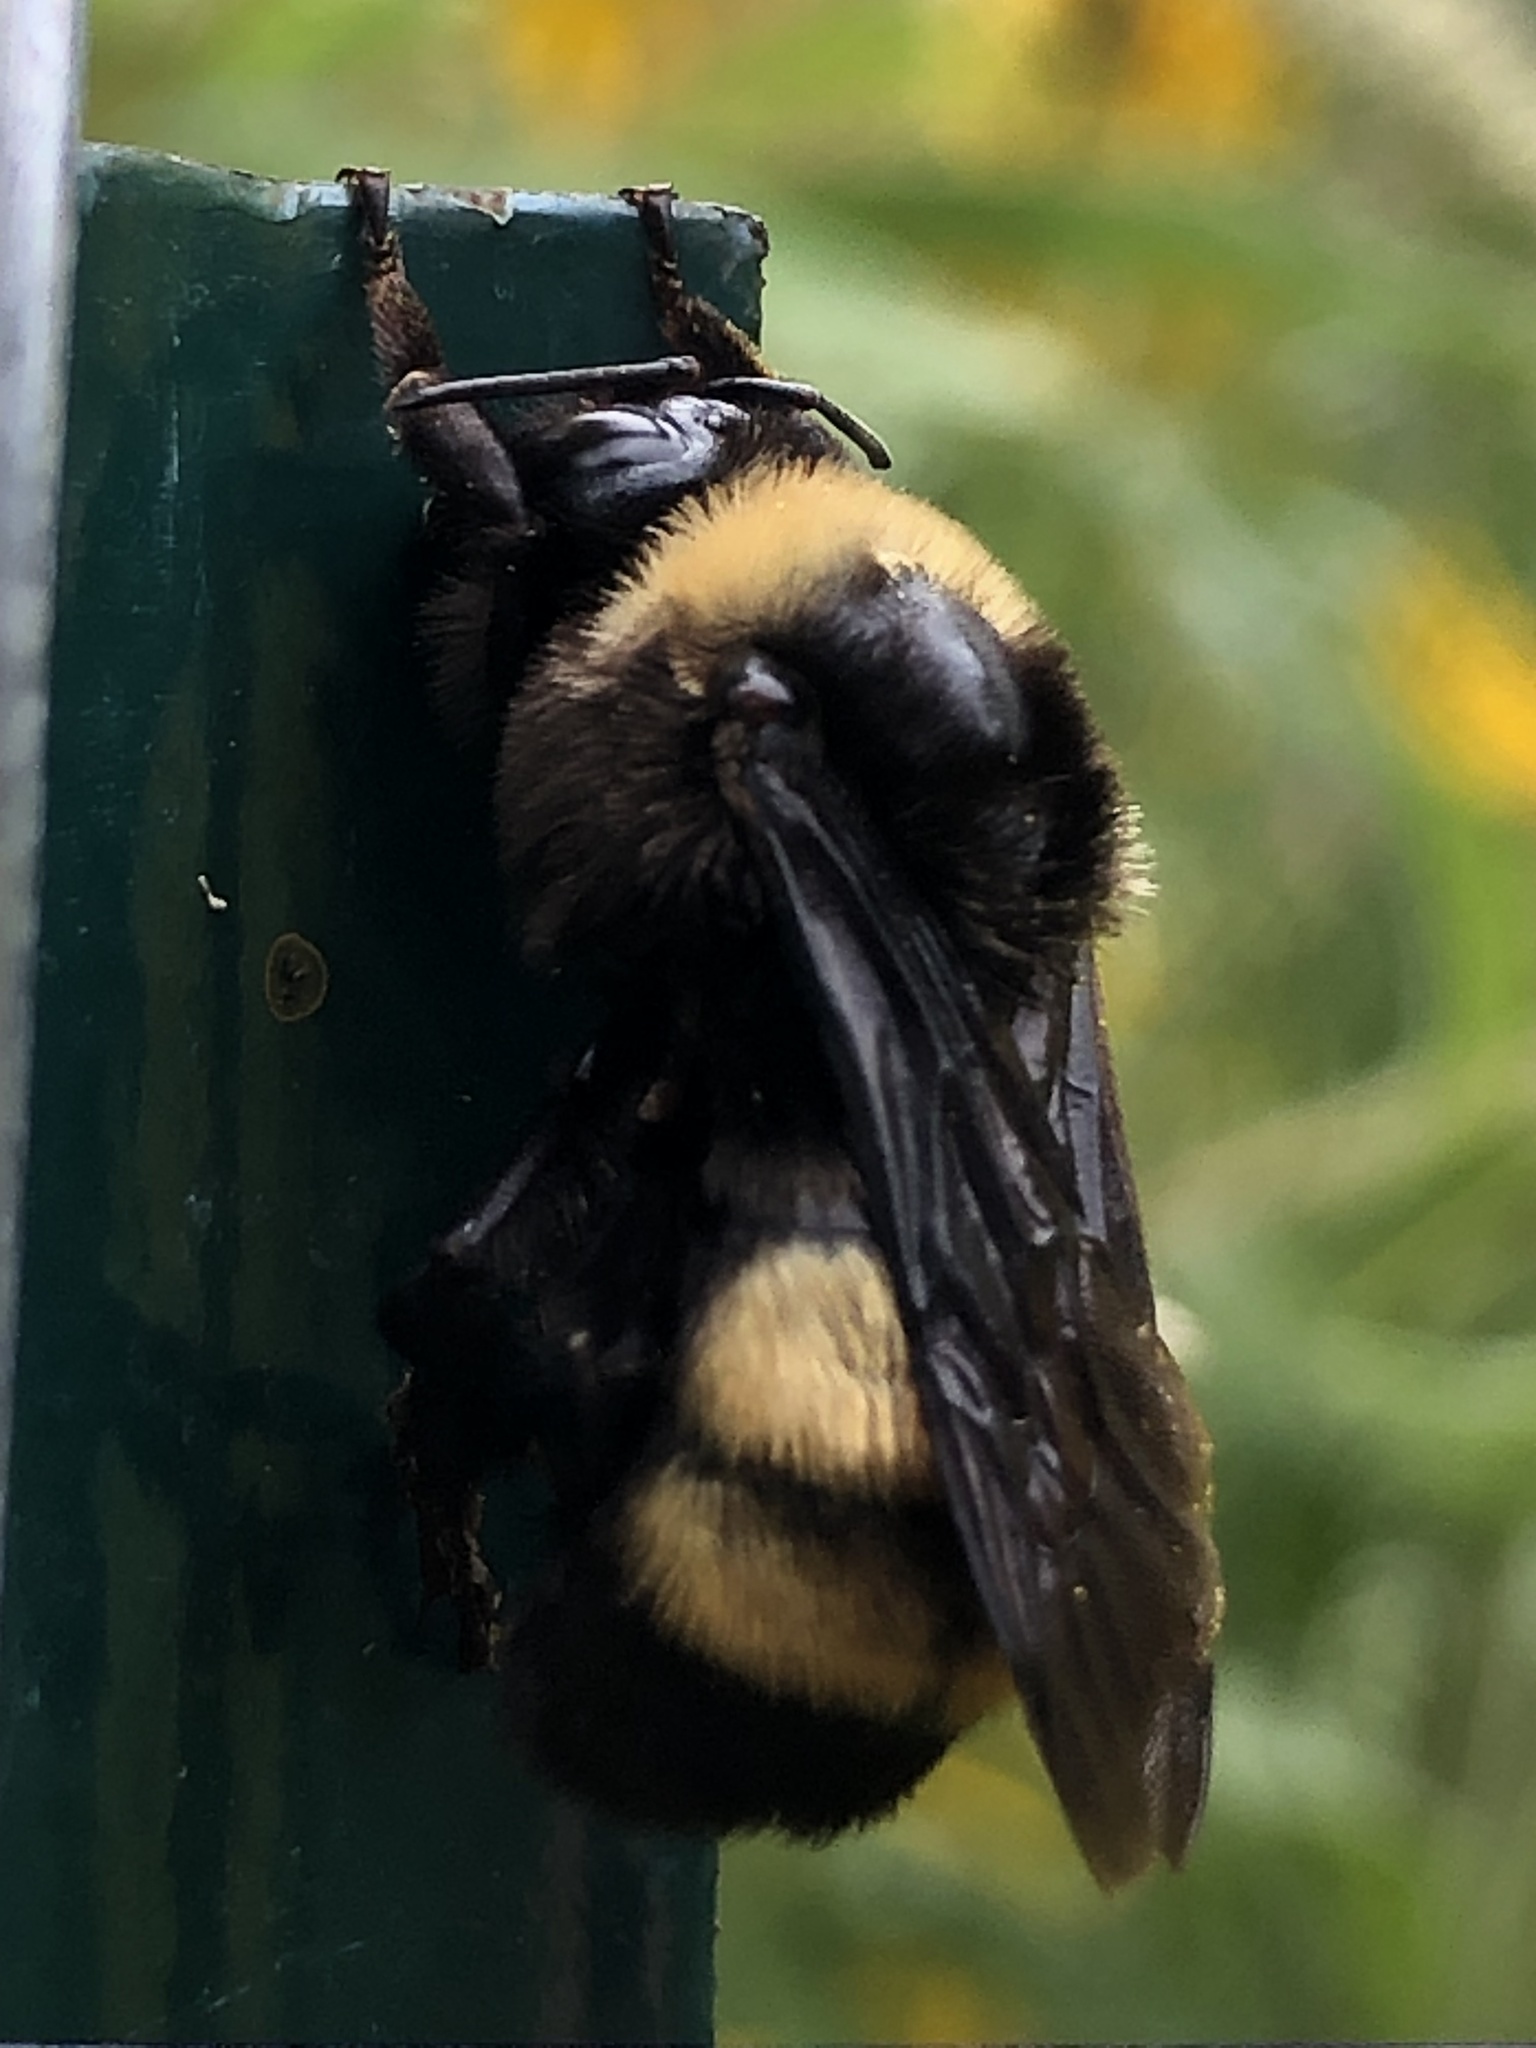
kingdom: Animalia
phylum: Arthropoda
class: Insecta
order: Hymenoptera
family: Apidae
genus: Bombus
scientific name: Bombus auricomus
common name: Black and gold bumble bee
